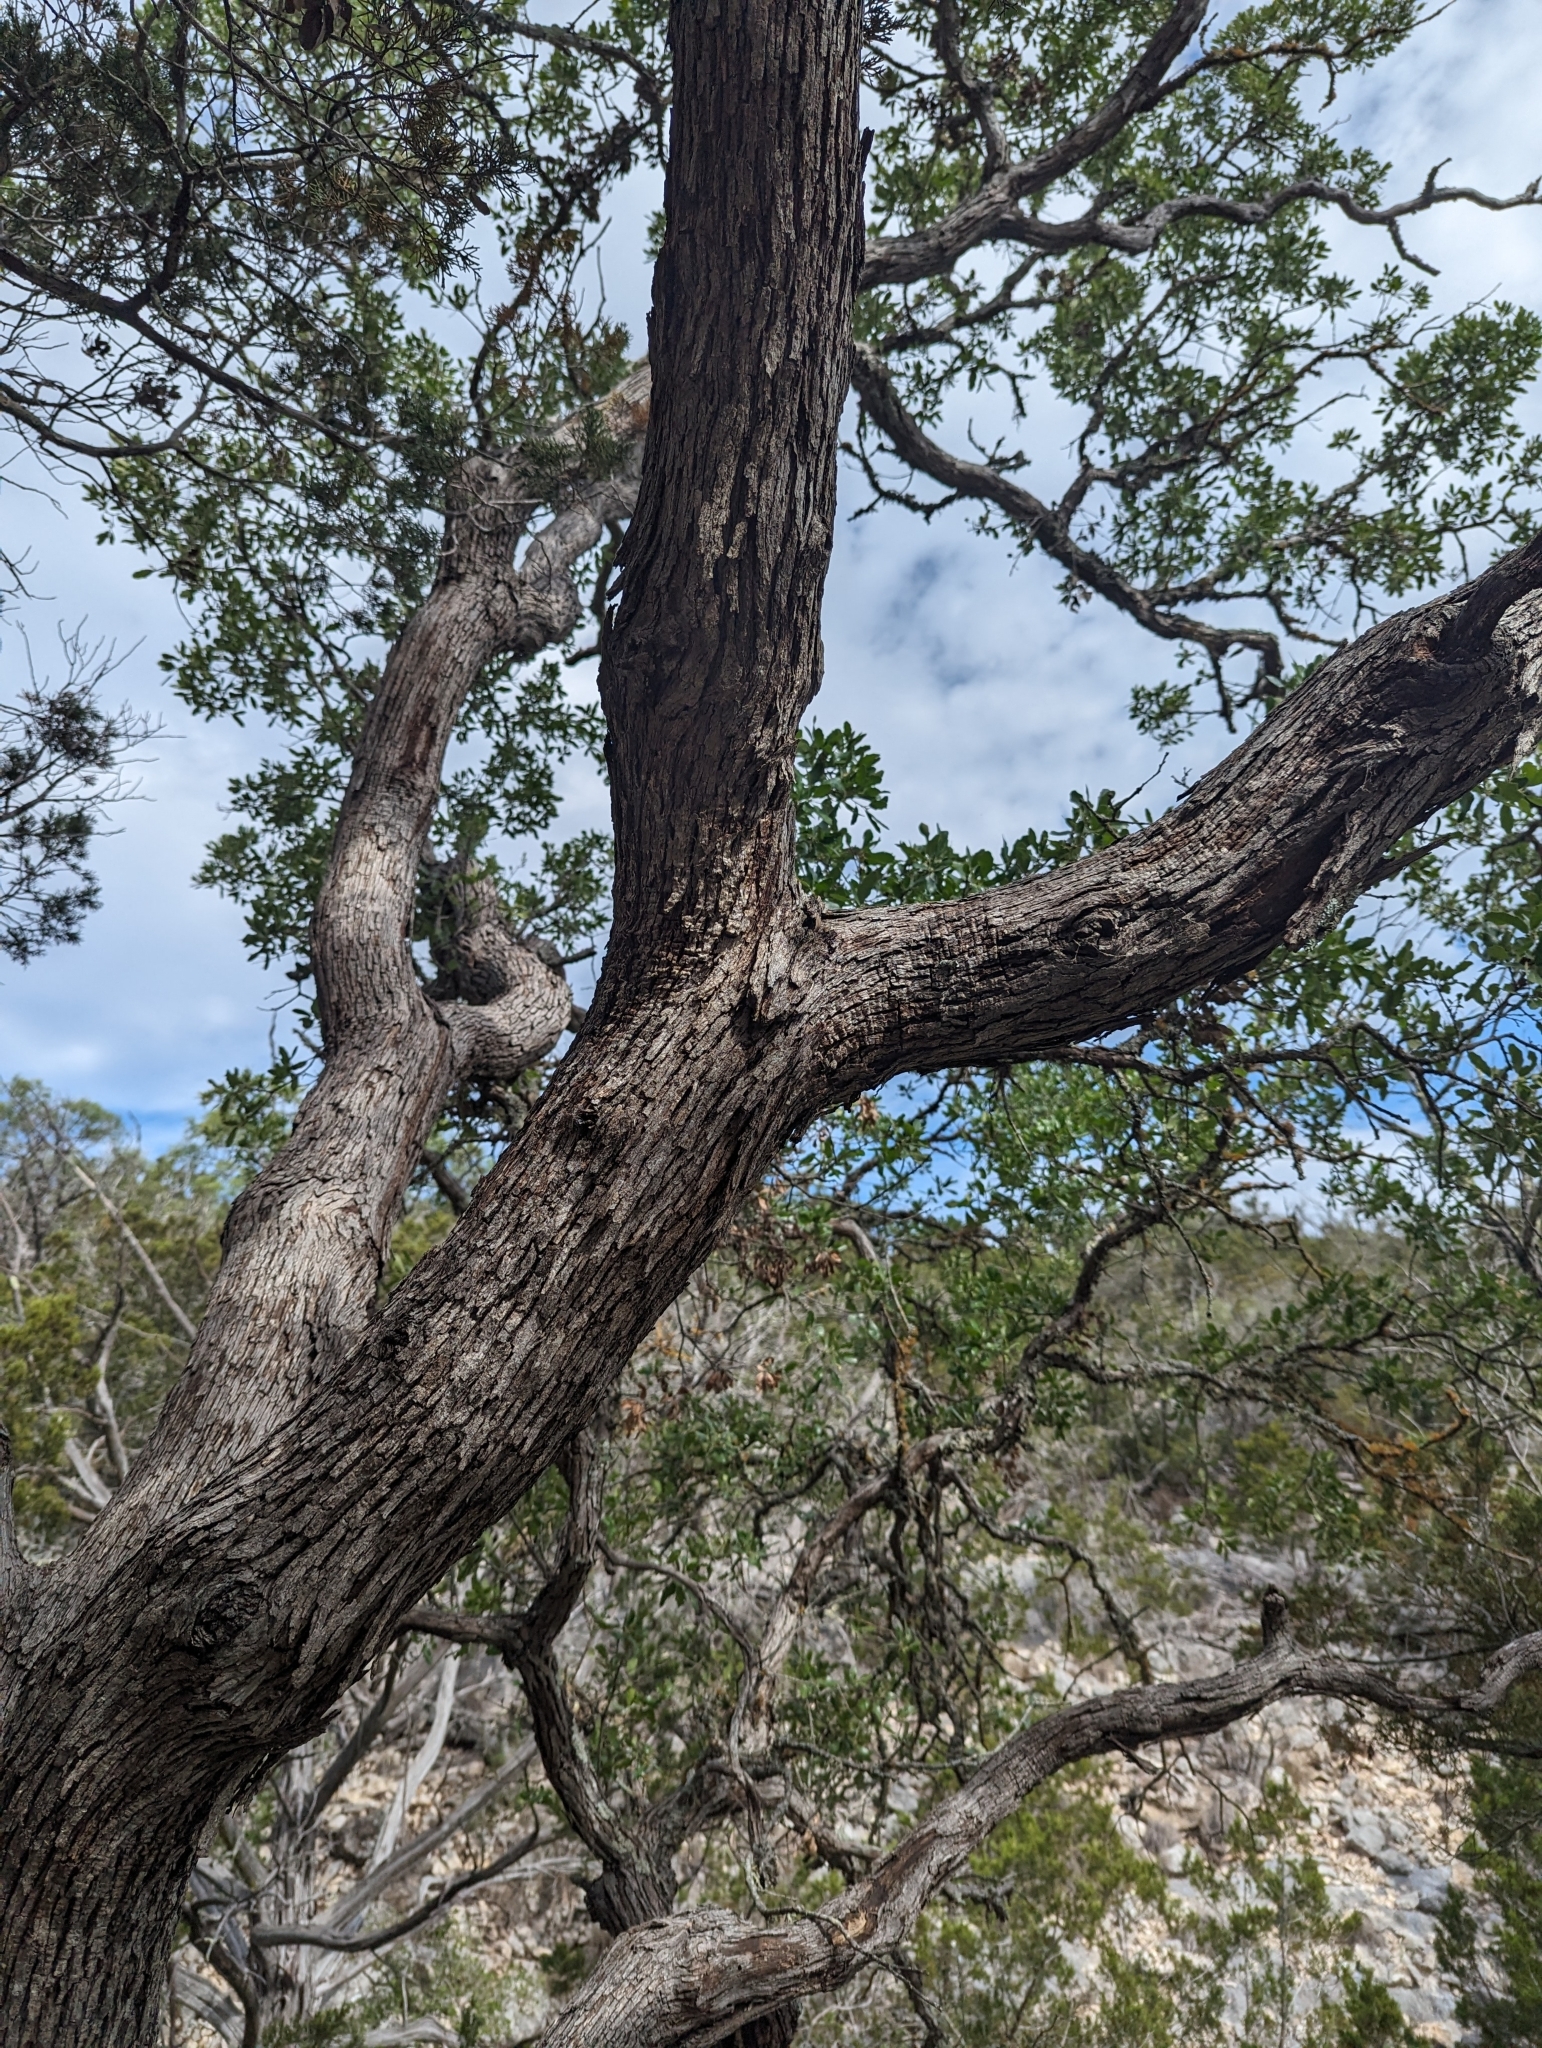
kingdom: Plantae
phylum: Tracheophyta
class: Magnoliopsida
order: Fagales
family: Fagaceae
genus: Quercus
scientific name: Quercus vaseyana
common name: Sandpaper oak
